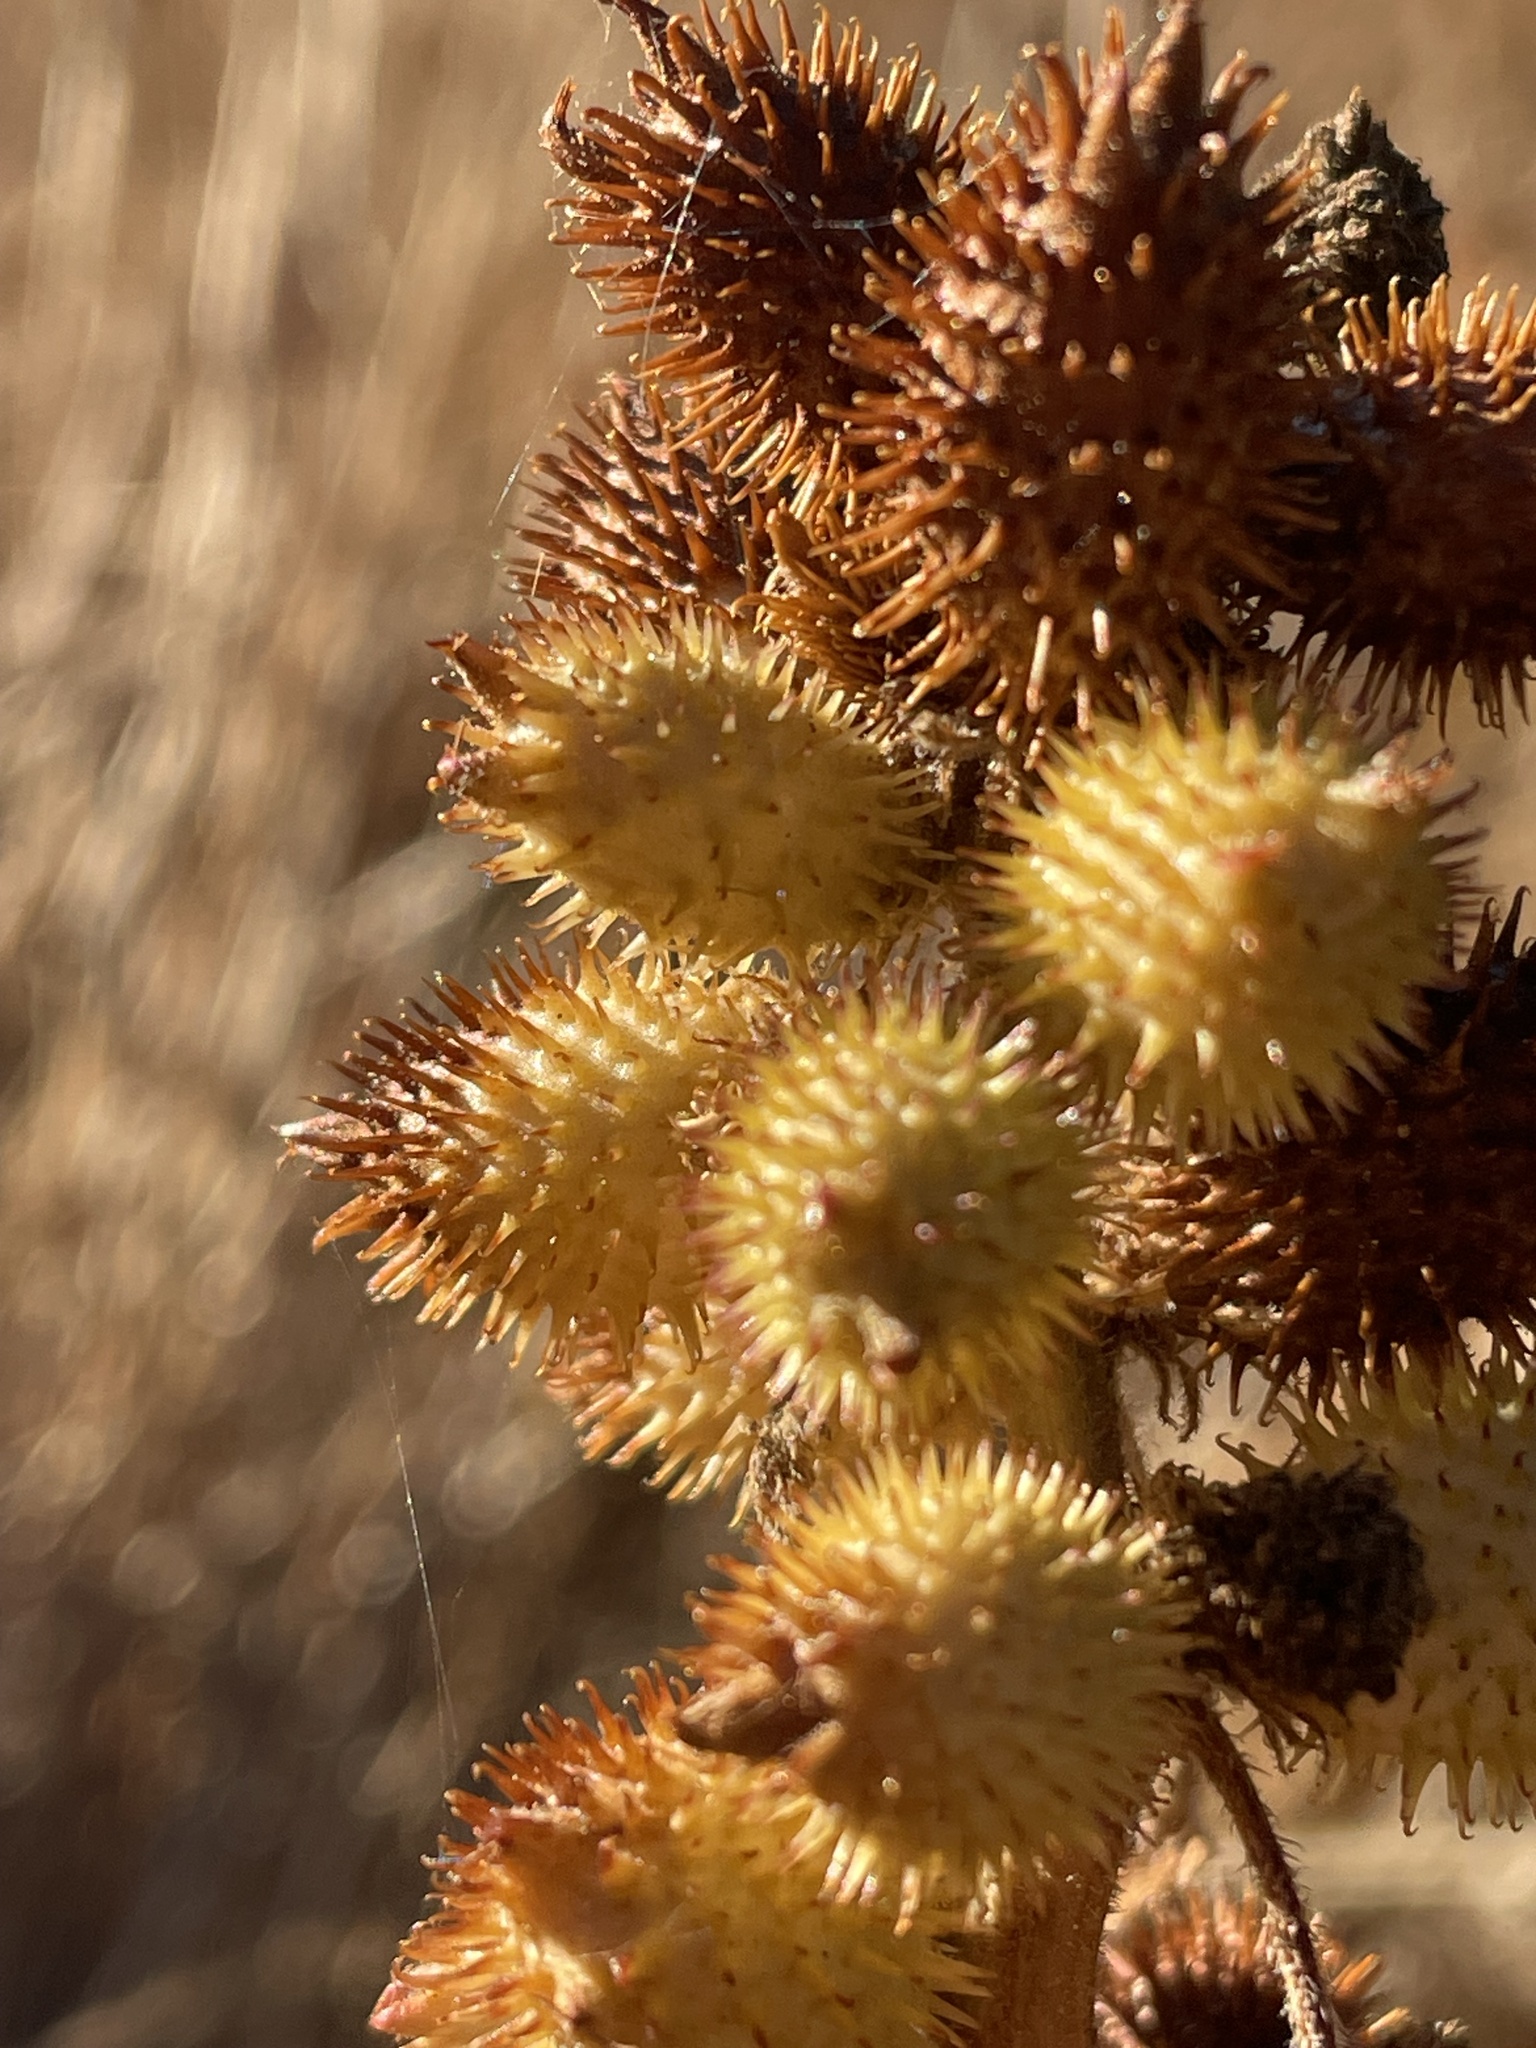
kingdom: Plantae
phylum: Tracheophyta
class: Magnoliopsida
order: Asterales
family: Asteraceae
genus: Xanthium
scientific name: Xanthium orientale
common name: Californian burr
